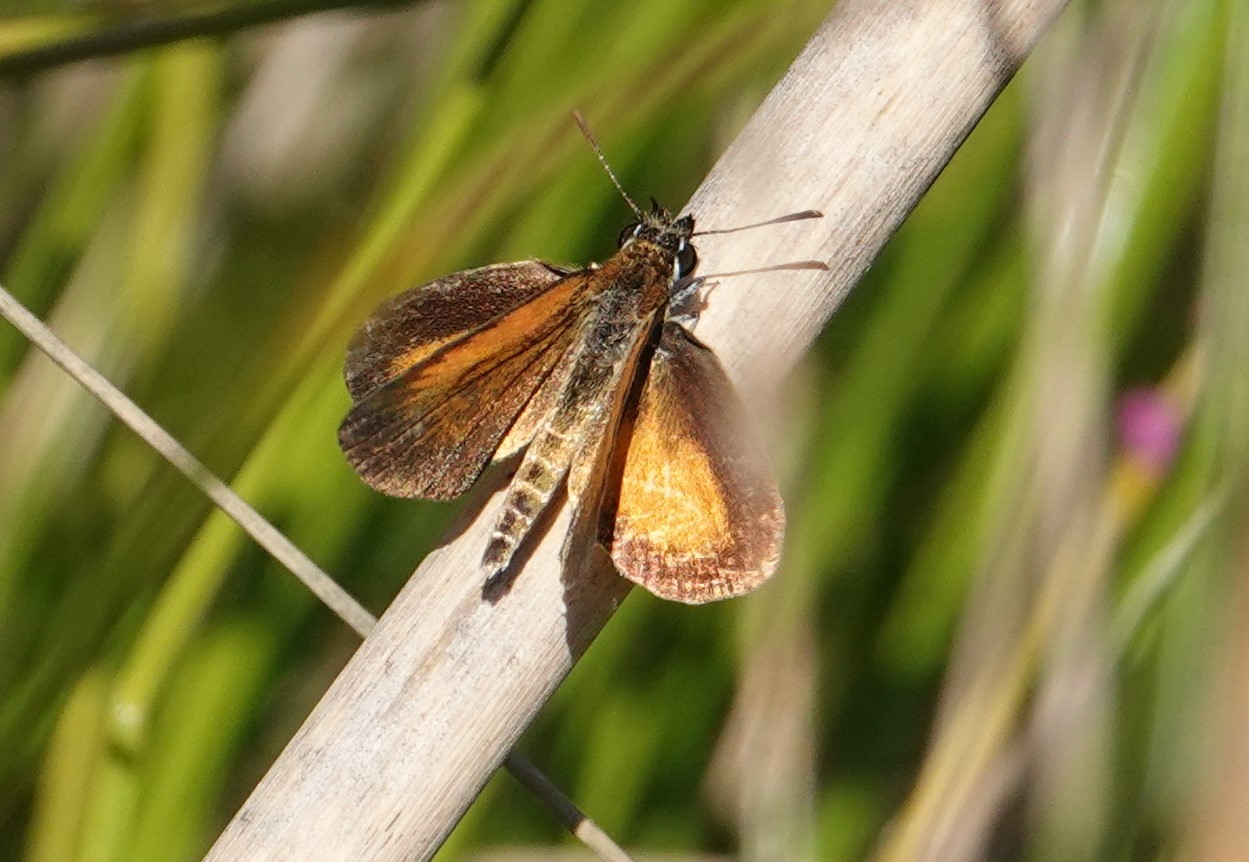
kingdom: Animalia
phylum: Arthropoda
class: Insecta
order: Lepidoptera
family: Hesperiidae
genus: Ancyloxypha
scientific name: Ancyloxypha numitor
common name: Least skipper
